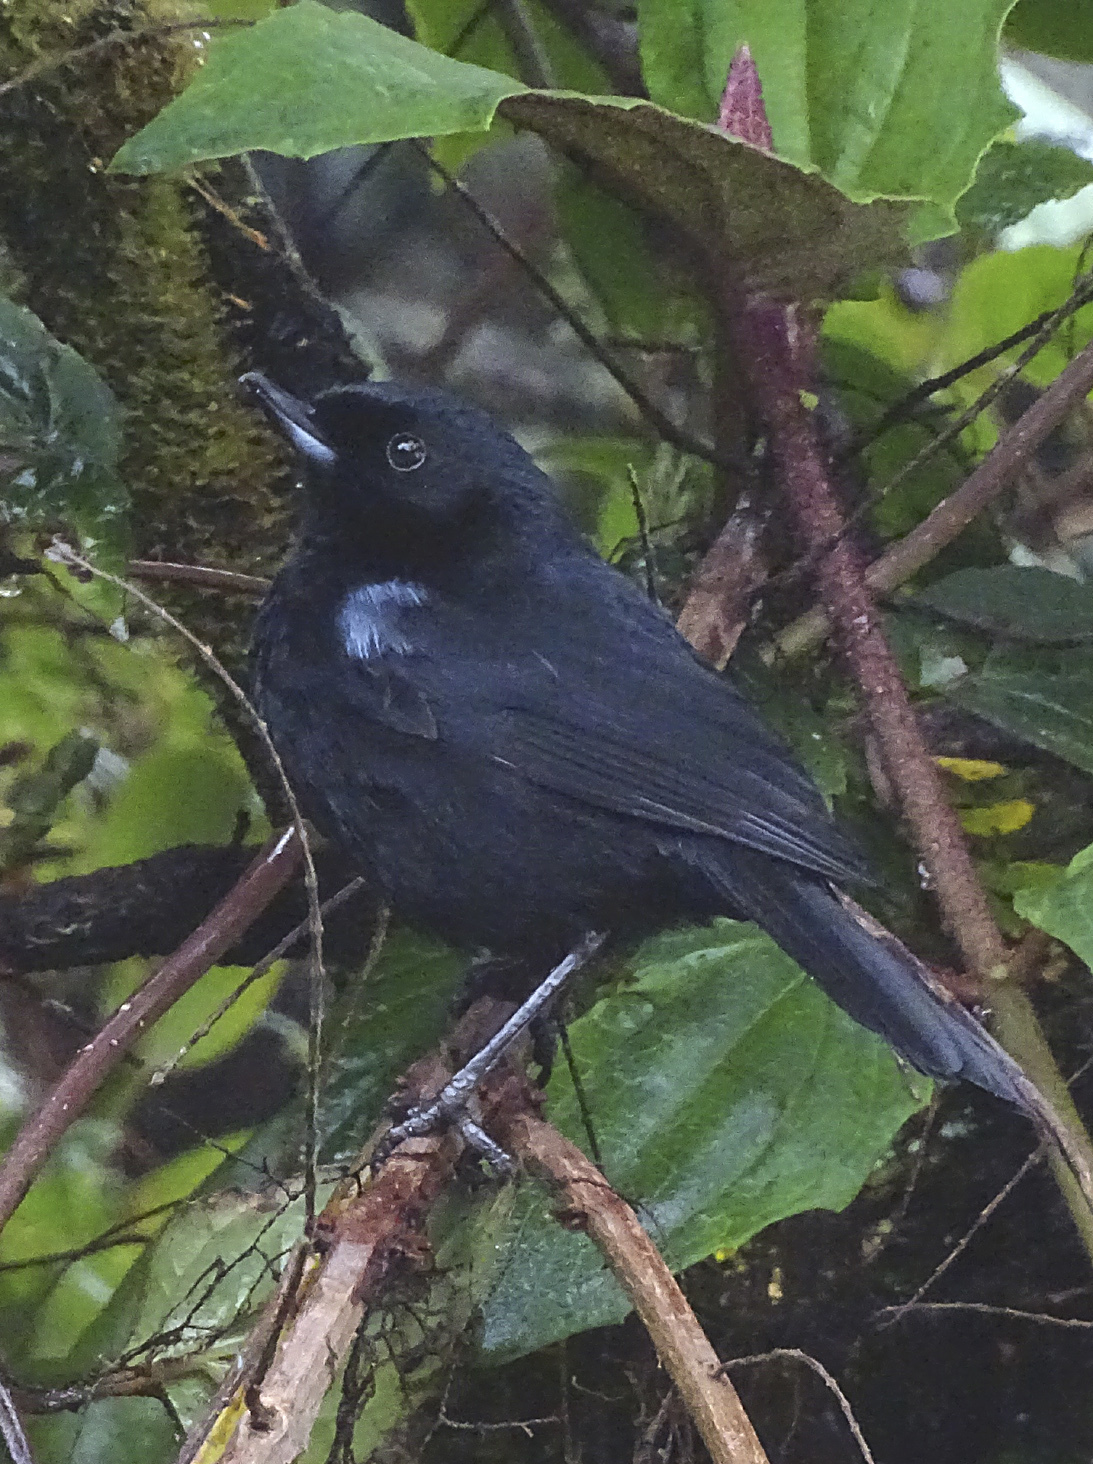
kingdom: Animalia
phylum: Chordata
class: Aves
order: Passeriformes
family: Thraupidae
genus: Diglossa
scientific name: Diglossa lafresnayii
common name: Glossy flowerpiercer
